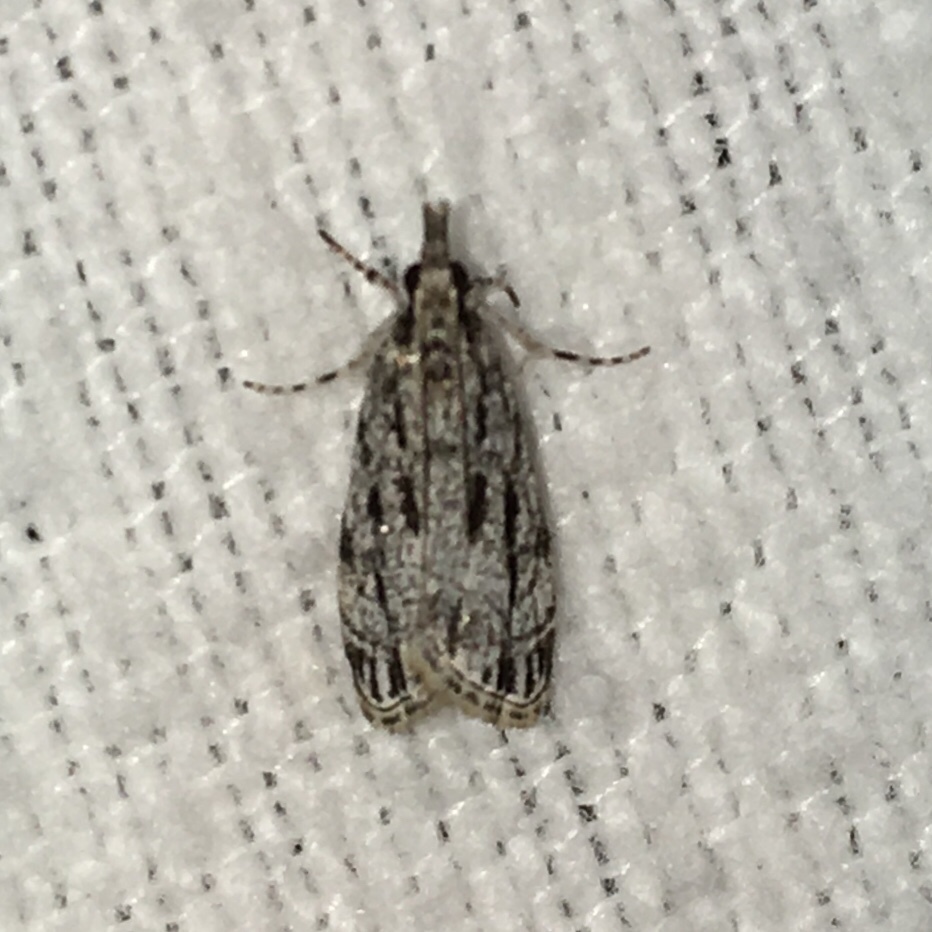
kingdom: Animalia
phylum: Arthropoda
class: Insecta
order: Lepidoptera
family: Crambidae
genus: Eudonia
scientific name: Eudonia strigalis
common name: Striped eudonia moth
